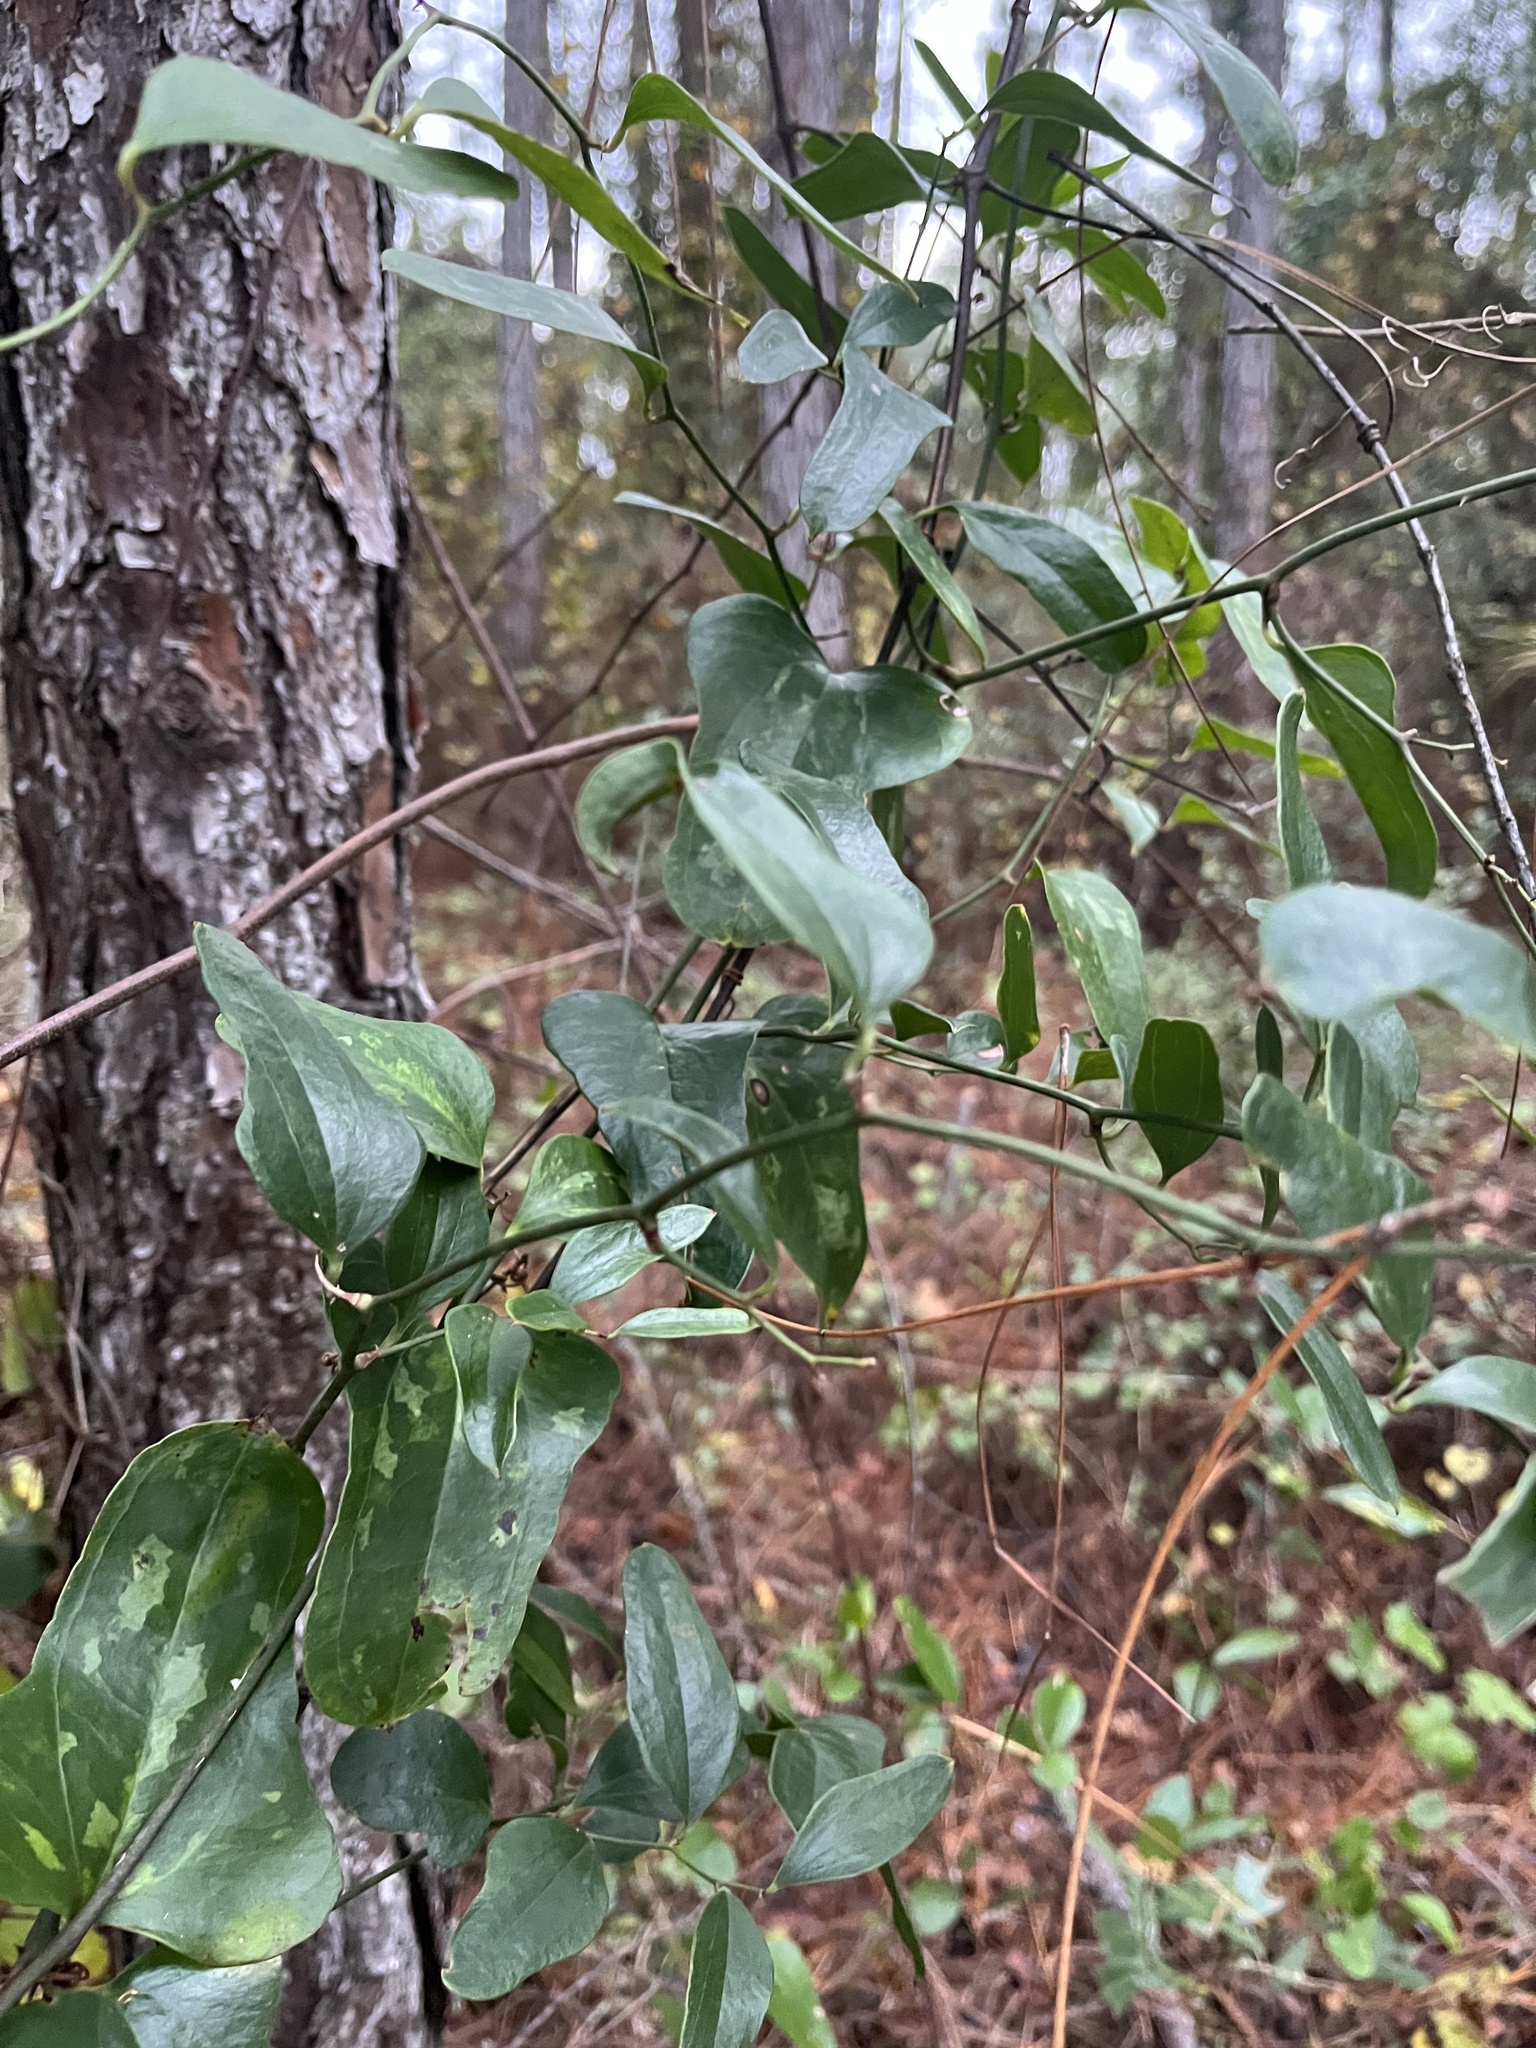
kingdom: Plantae
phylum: Tracheophyta
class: Liliopsida
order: Liliales
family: Smilacaceae
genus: Smilax
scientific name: Smilax auriculata
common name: Wild bamboo
